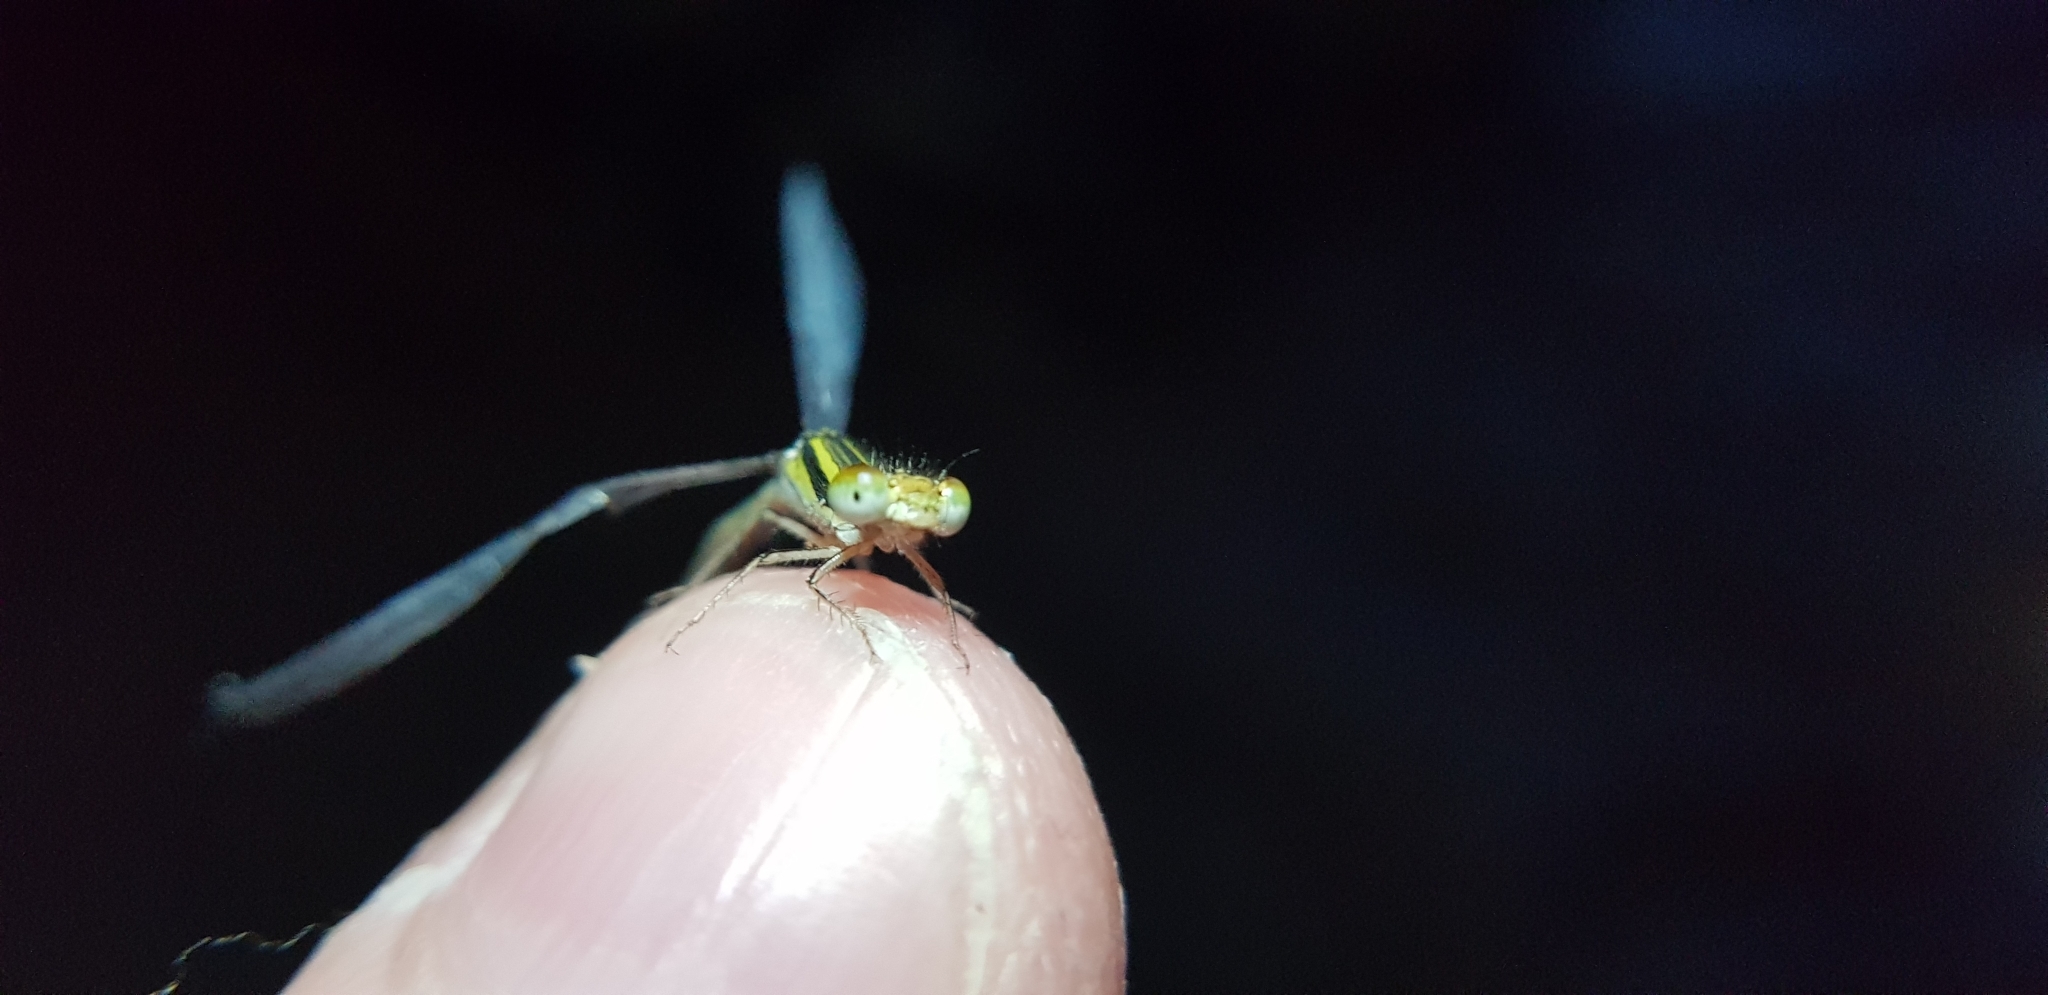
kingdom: Animalia
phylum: Arthropoda
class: Insecta
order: Odonata
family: Coenagrionidae
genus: Austroagrion
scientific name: Austroagrion watsoni
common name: Eastern billabongfly
